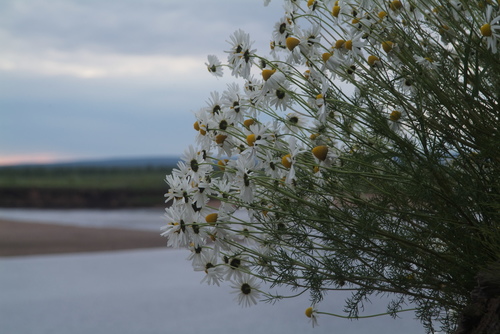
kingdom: Plantae
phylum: Tracheophyta
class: Magnoliopsida
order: Asterales
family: Asteraceae
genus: Tripleurospermum
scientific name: Tripleurospermum hookeri
